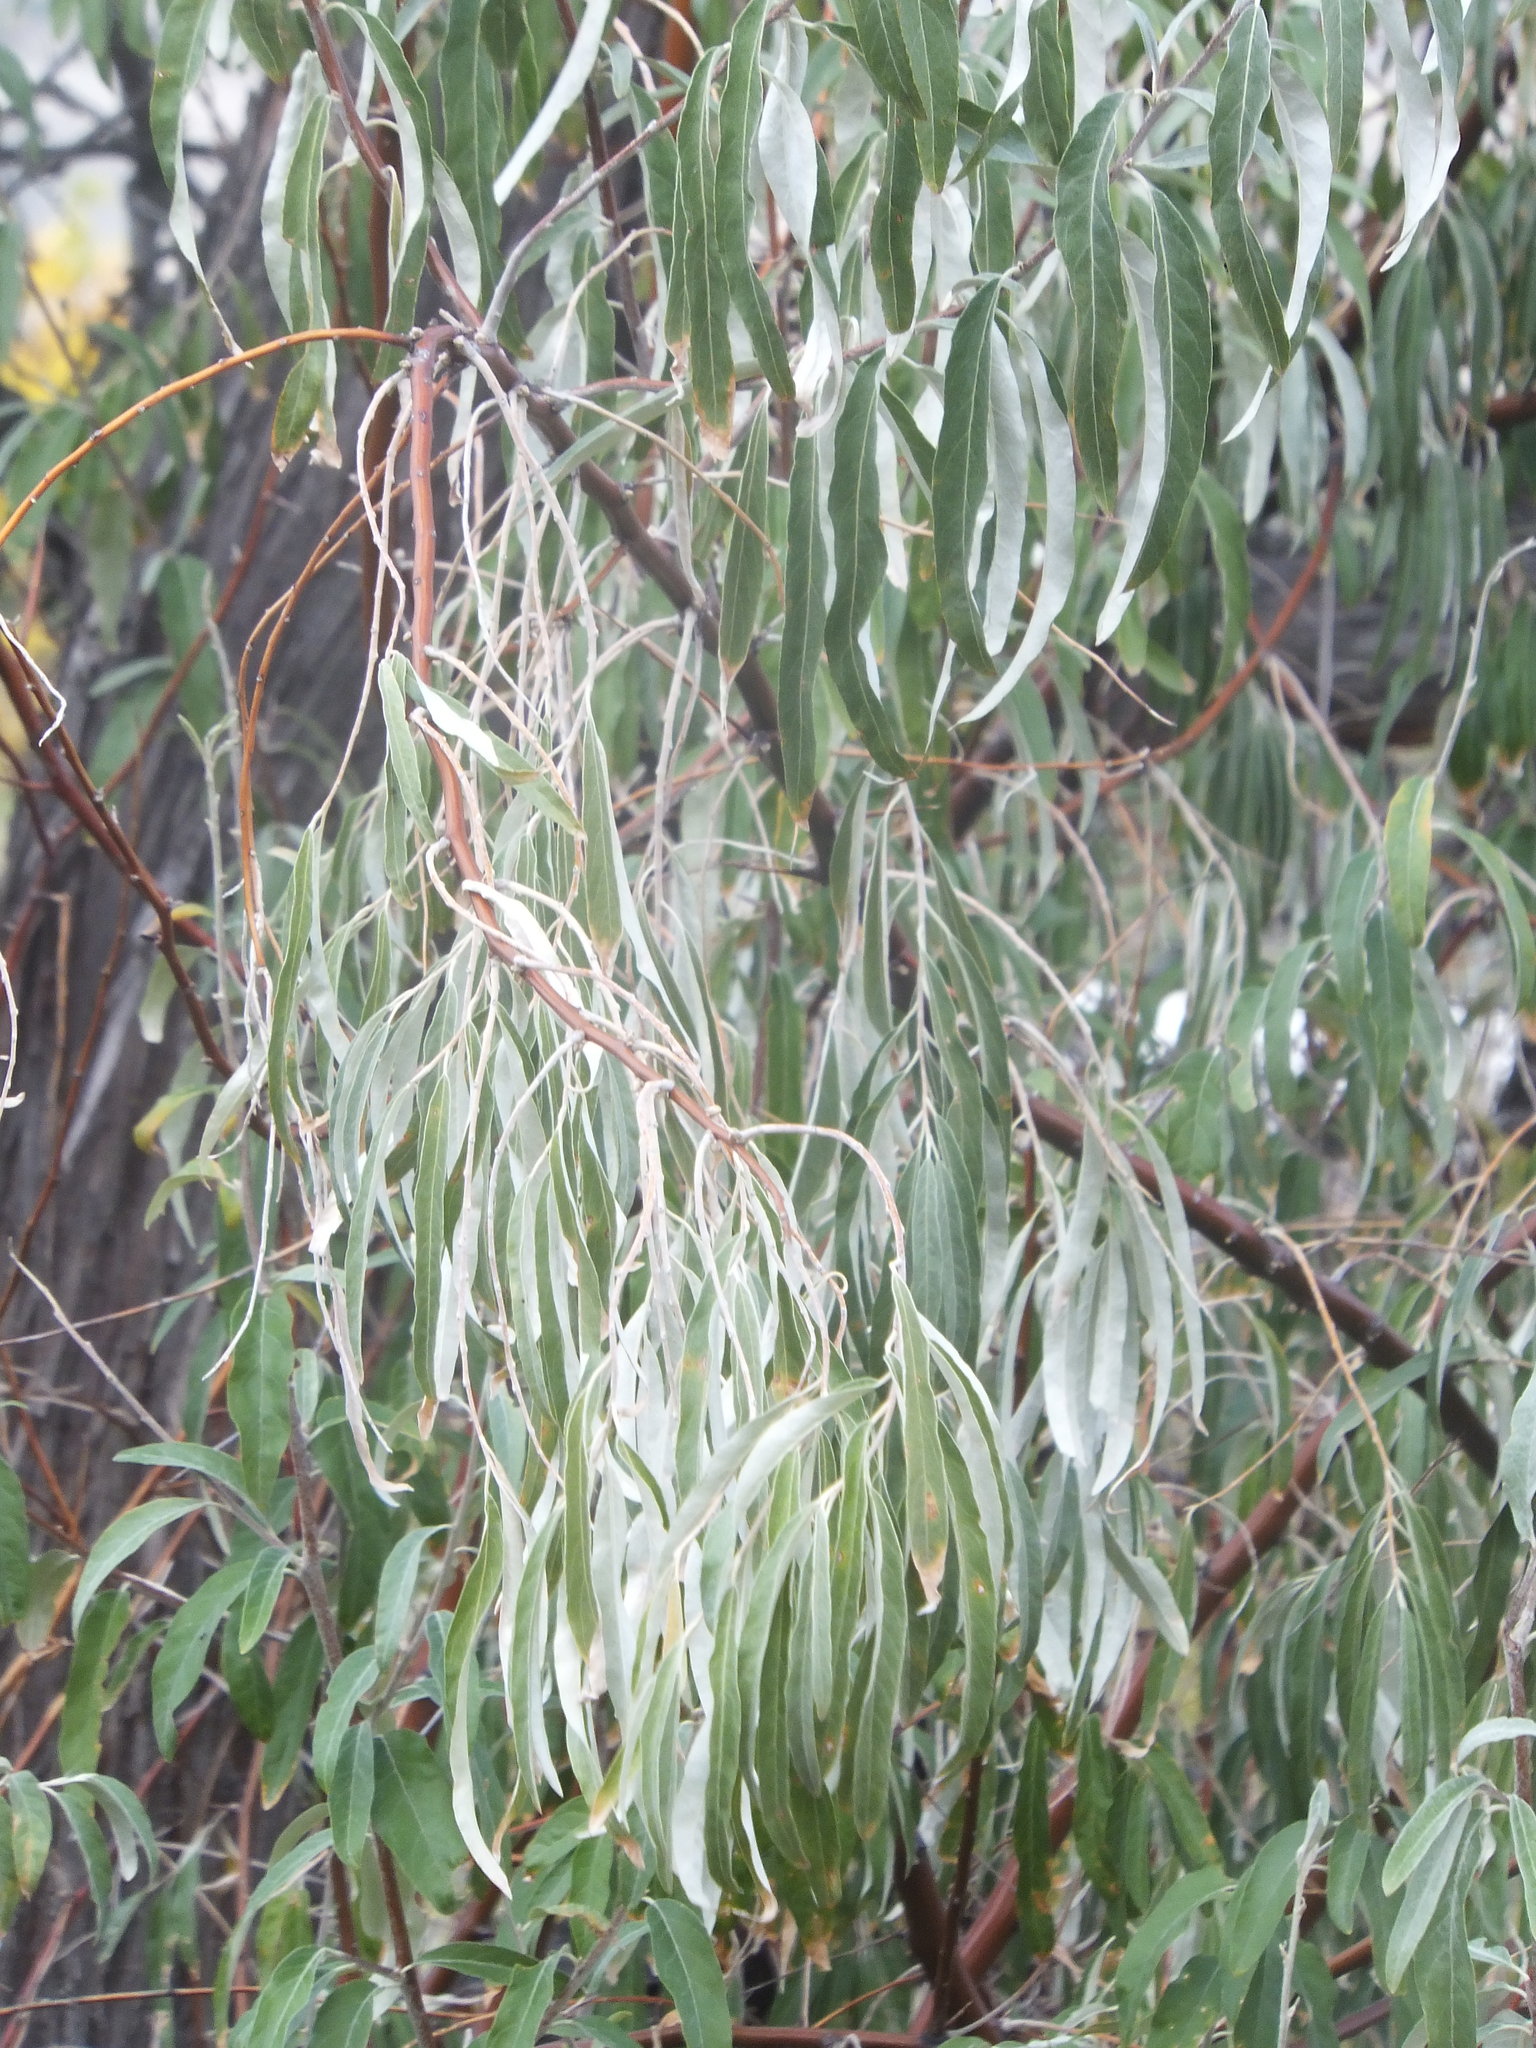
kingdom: Plantae
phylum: Tracheophyta
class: Magnoliopsida
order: Rosales
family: Elaeagnaceae
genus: Elaeagnus
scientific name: Elaeagnus angustifolia
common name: Russian olive
